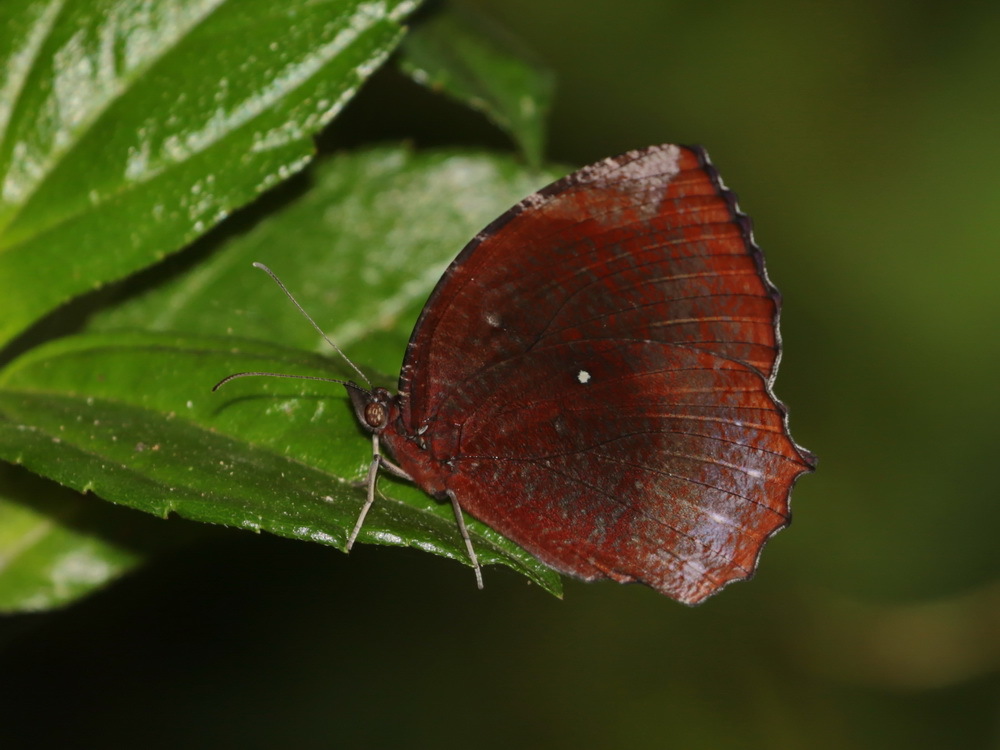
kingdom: Animalia
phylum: Arthropoda
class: Insecta
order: Lepidoptera
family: Nymphalidae
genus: Elymnias
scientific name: Elymnias hypermnestra
